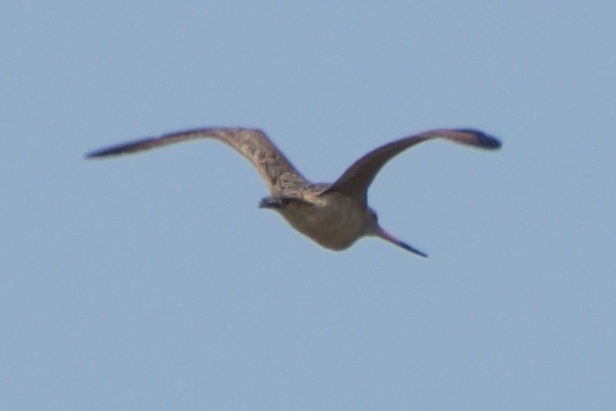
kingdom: Animalia
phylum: Chordata
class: Aves
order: Charadriiformes
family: Scolopacidae
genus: Limosa
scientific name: Limosa fedoa
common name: Marbled godwit
